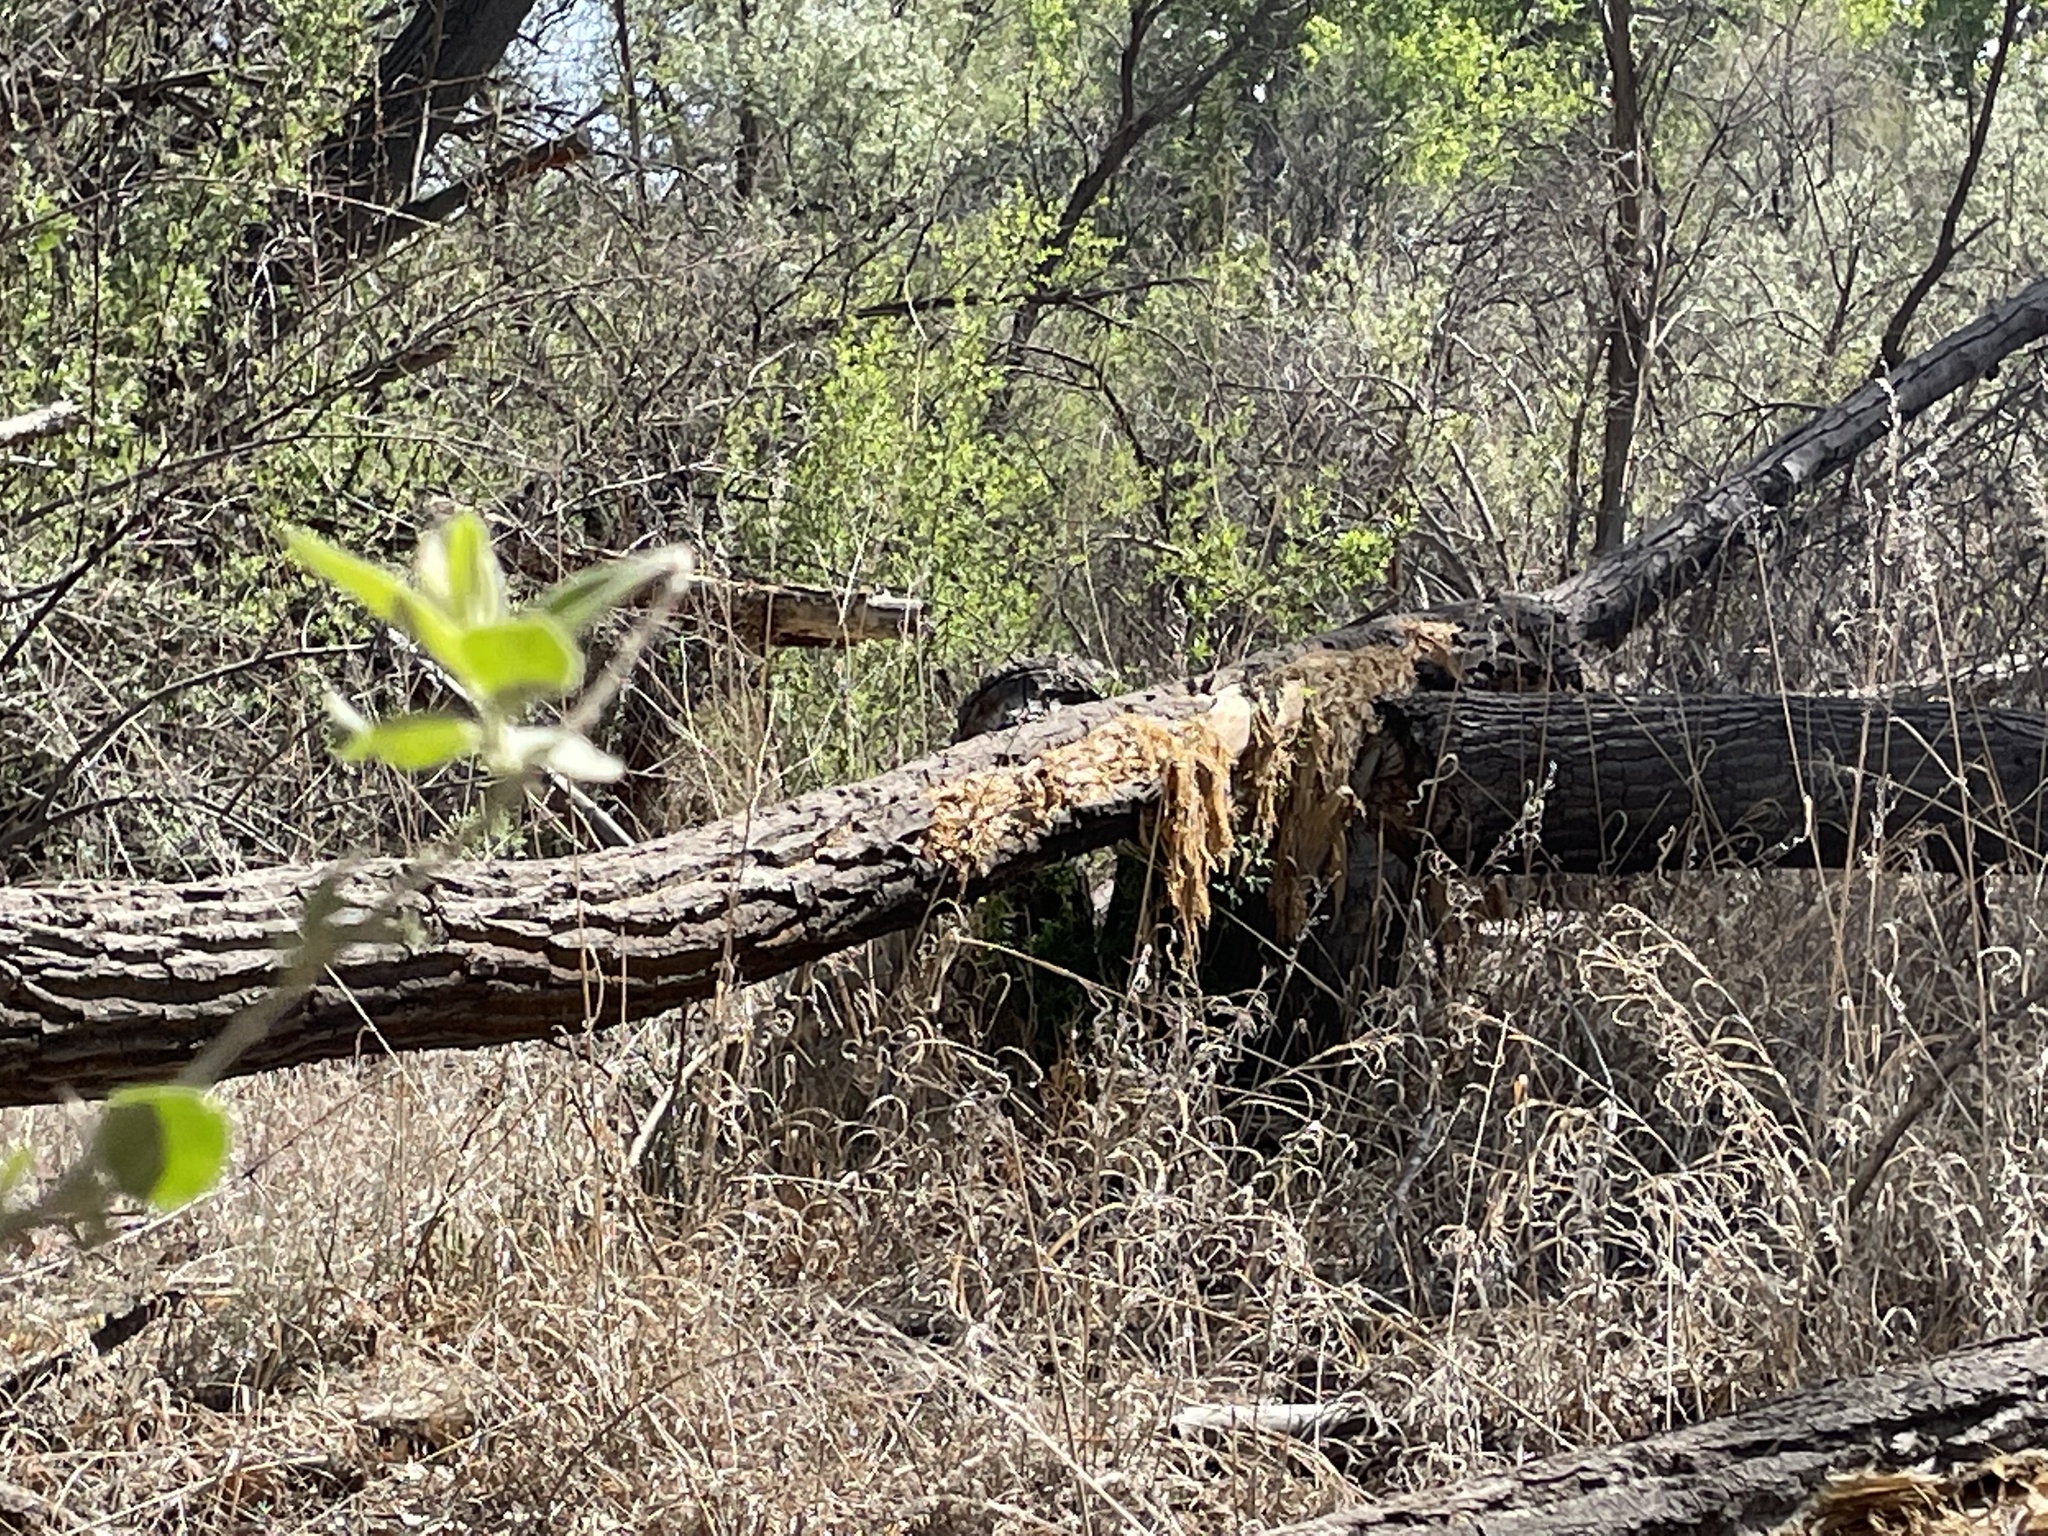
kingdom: Animalia
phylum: Chordata
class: Mammalia
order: Rodentia
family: Castoridae
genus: Castor
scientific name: Castor canadensis
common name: American beaver
